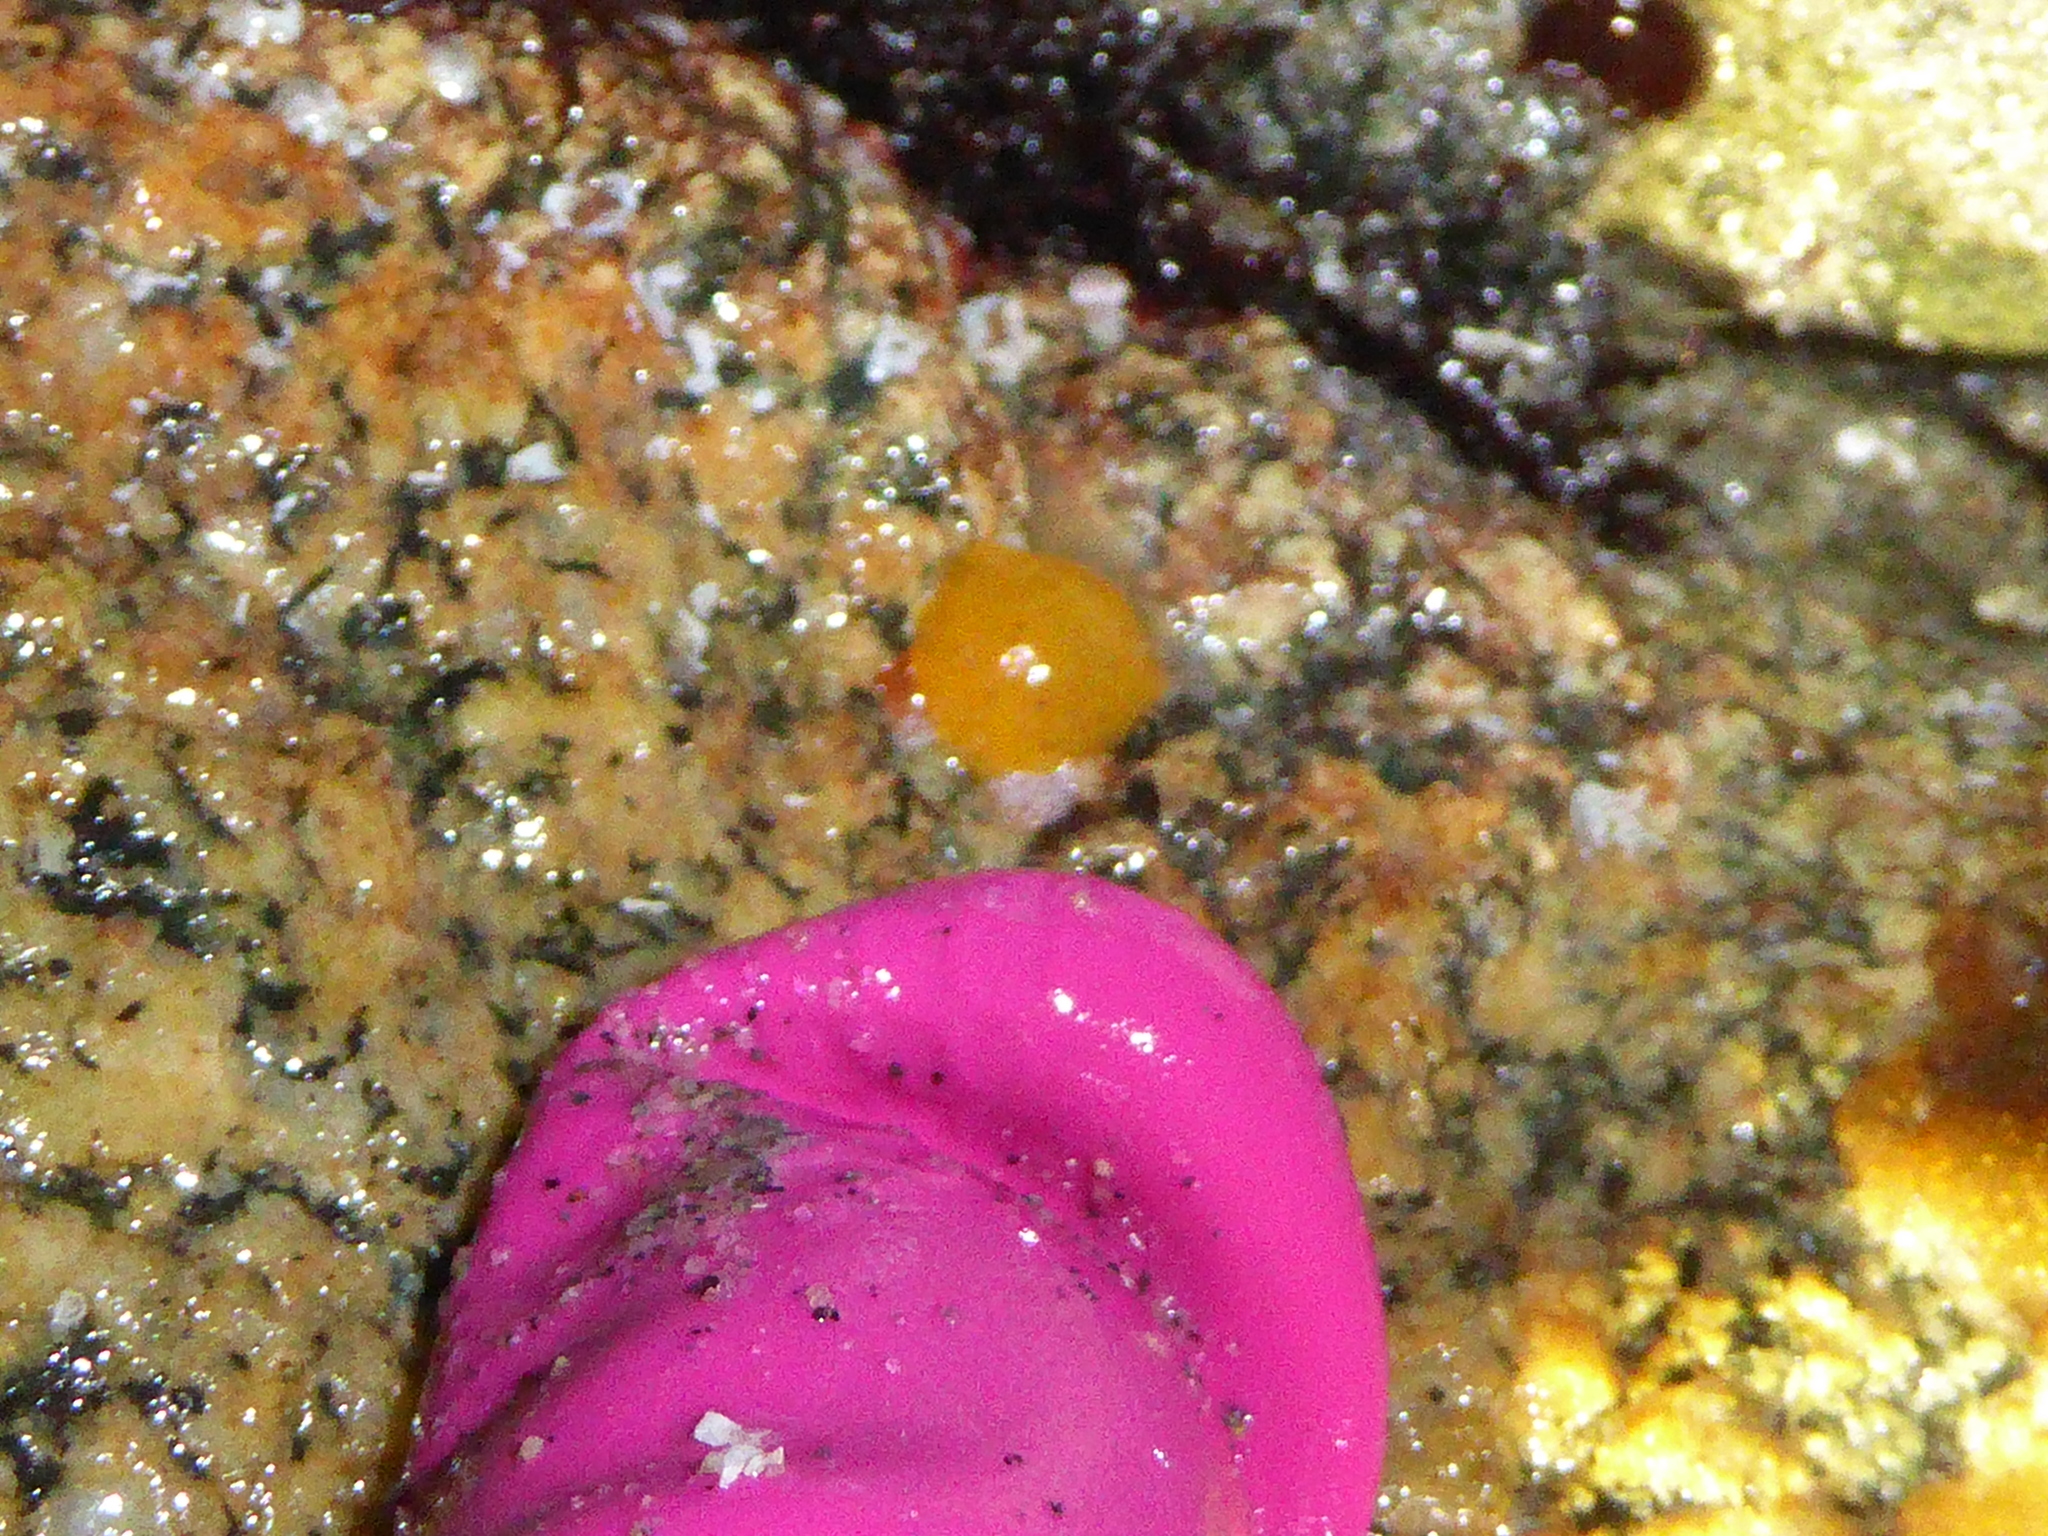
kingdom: Animalia
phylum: Mollusca
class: Gastropoda
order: Nudibranchia
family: Dorididae
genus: Doris
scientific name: Doris montereyensis
